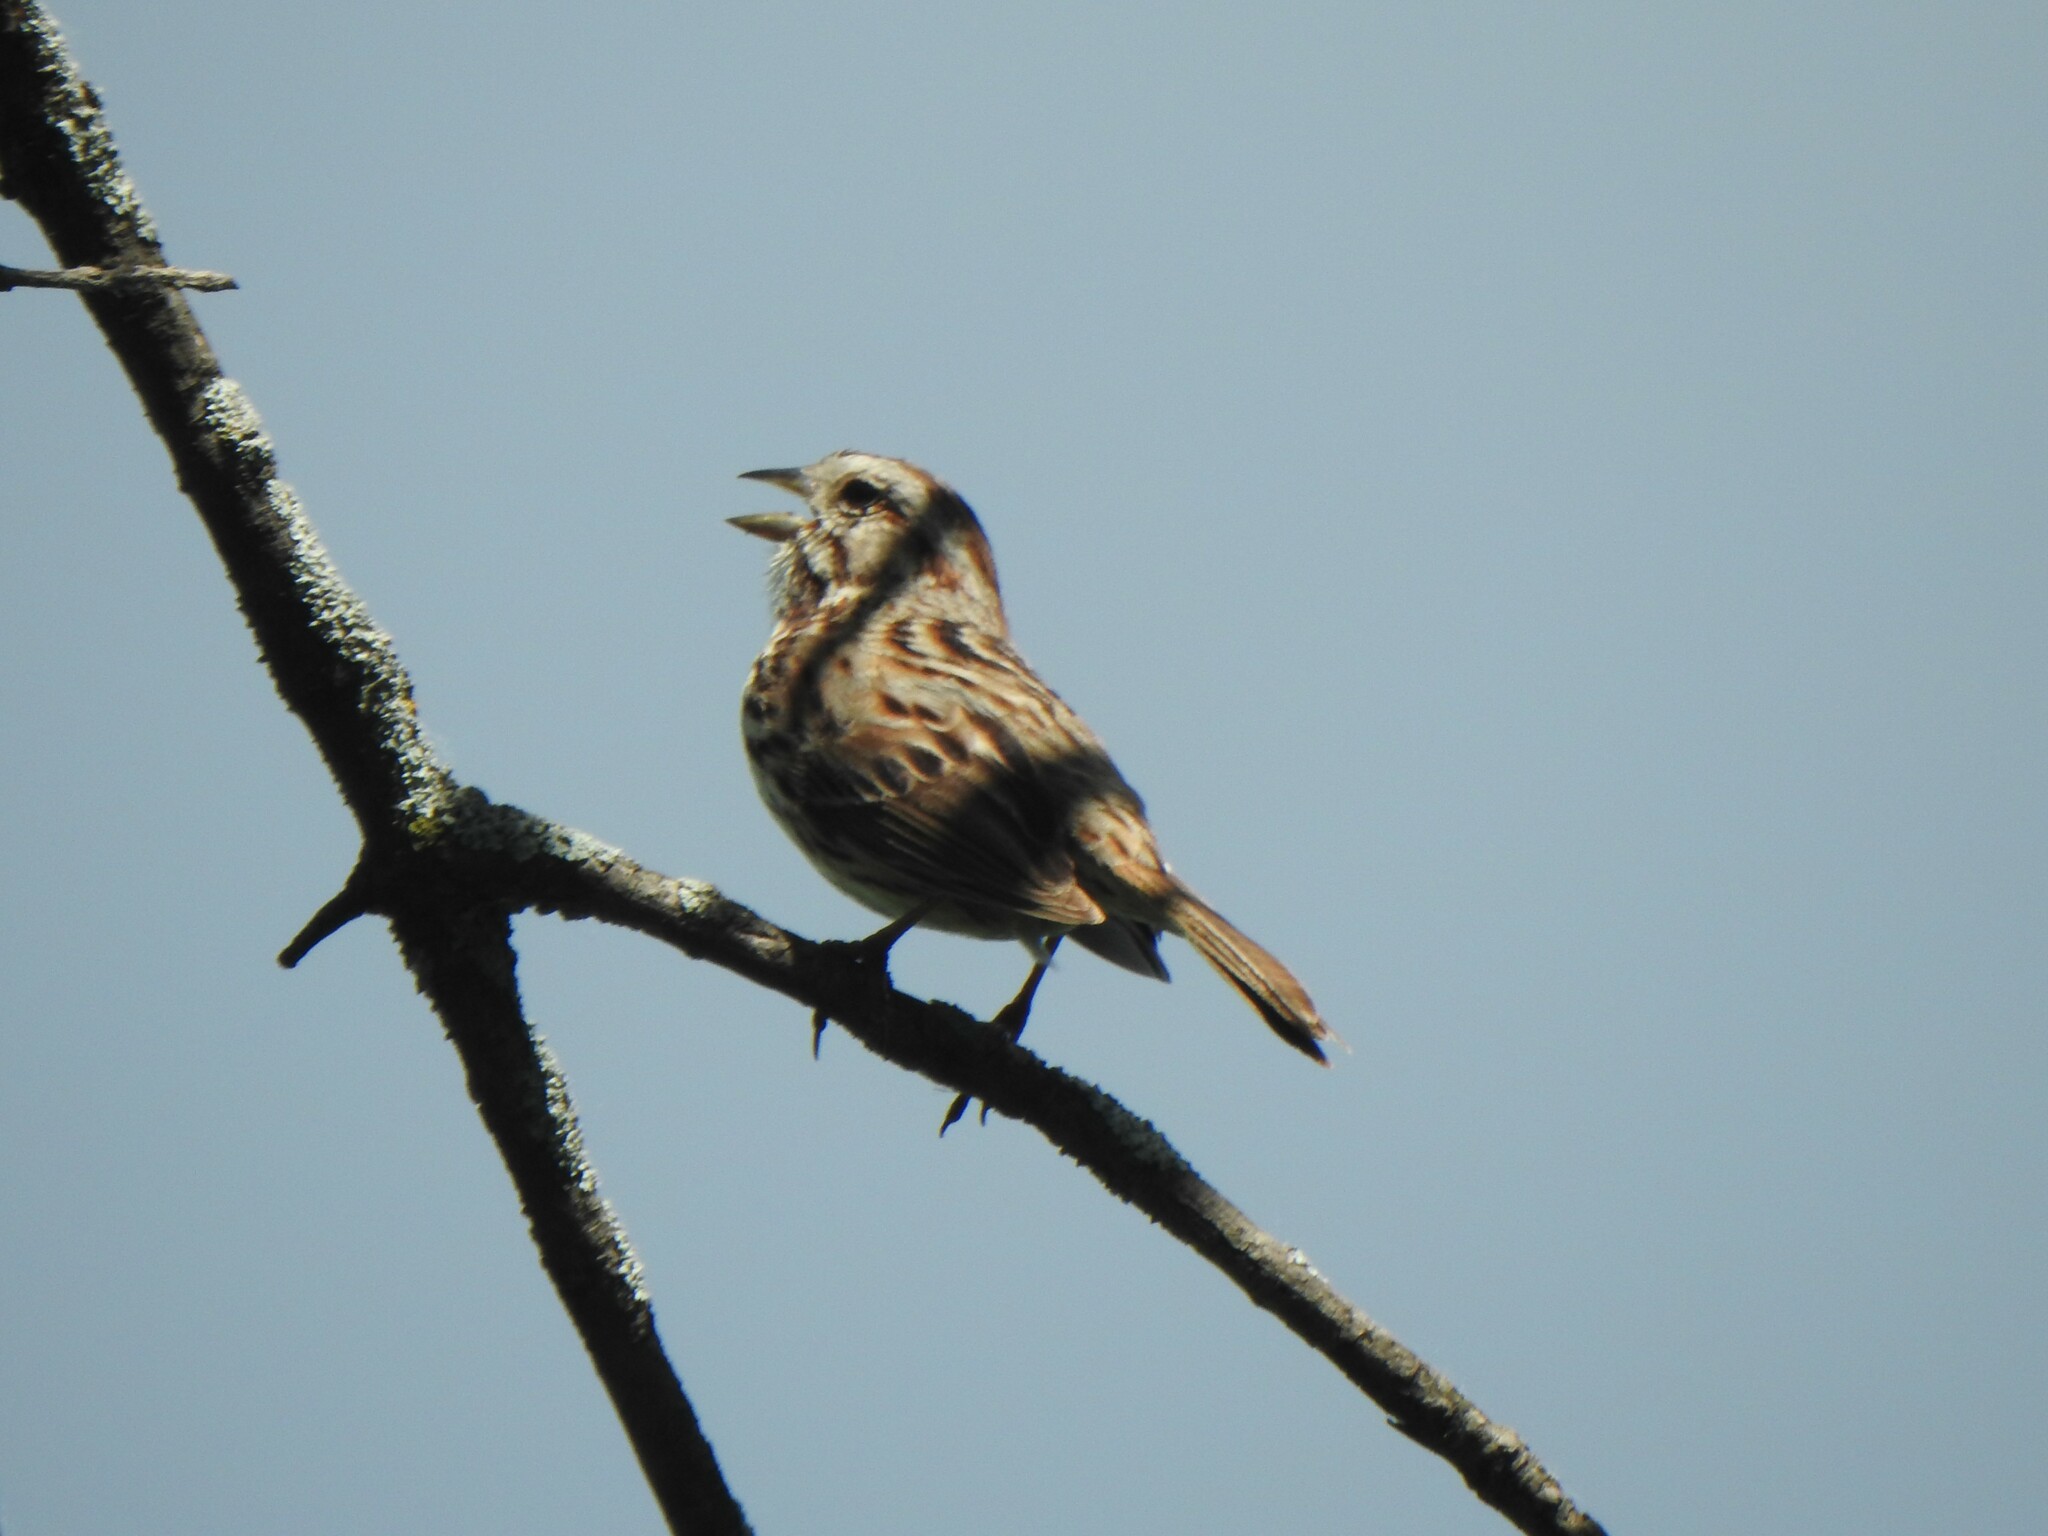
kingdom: Animalia
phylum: Chordata
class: Aves
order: Passeriformes
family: Passerellidae
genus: Melospiza
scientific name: Melospiza melodia
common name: Song sparrow
